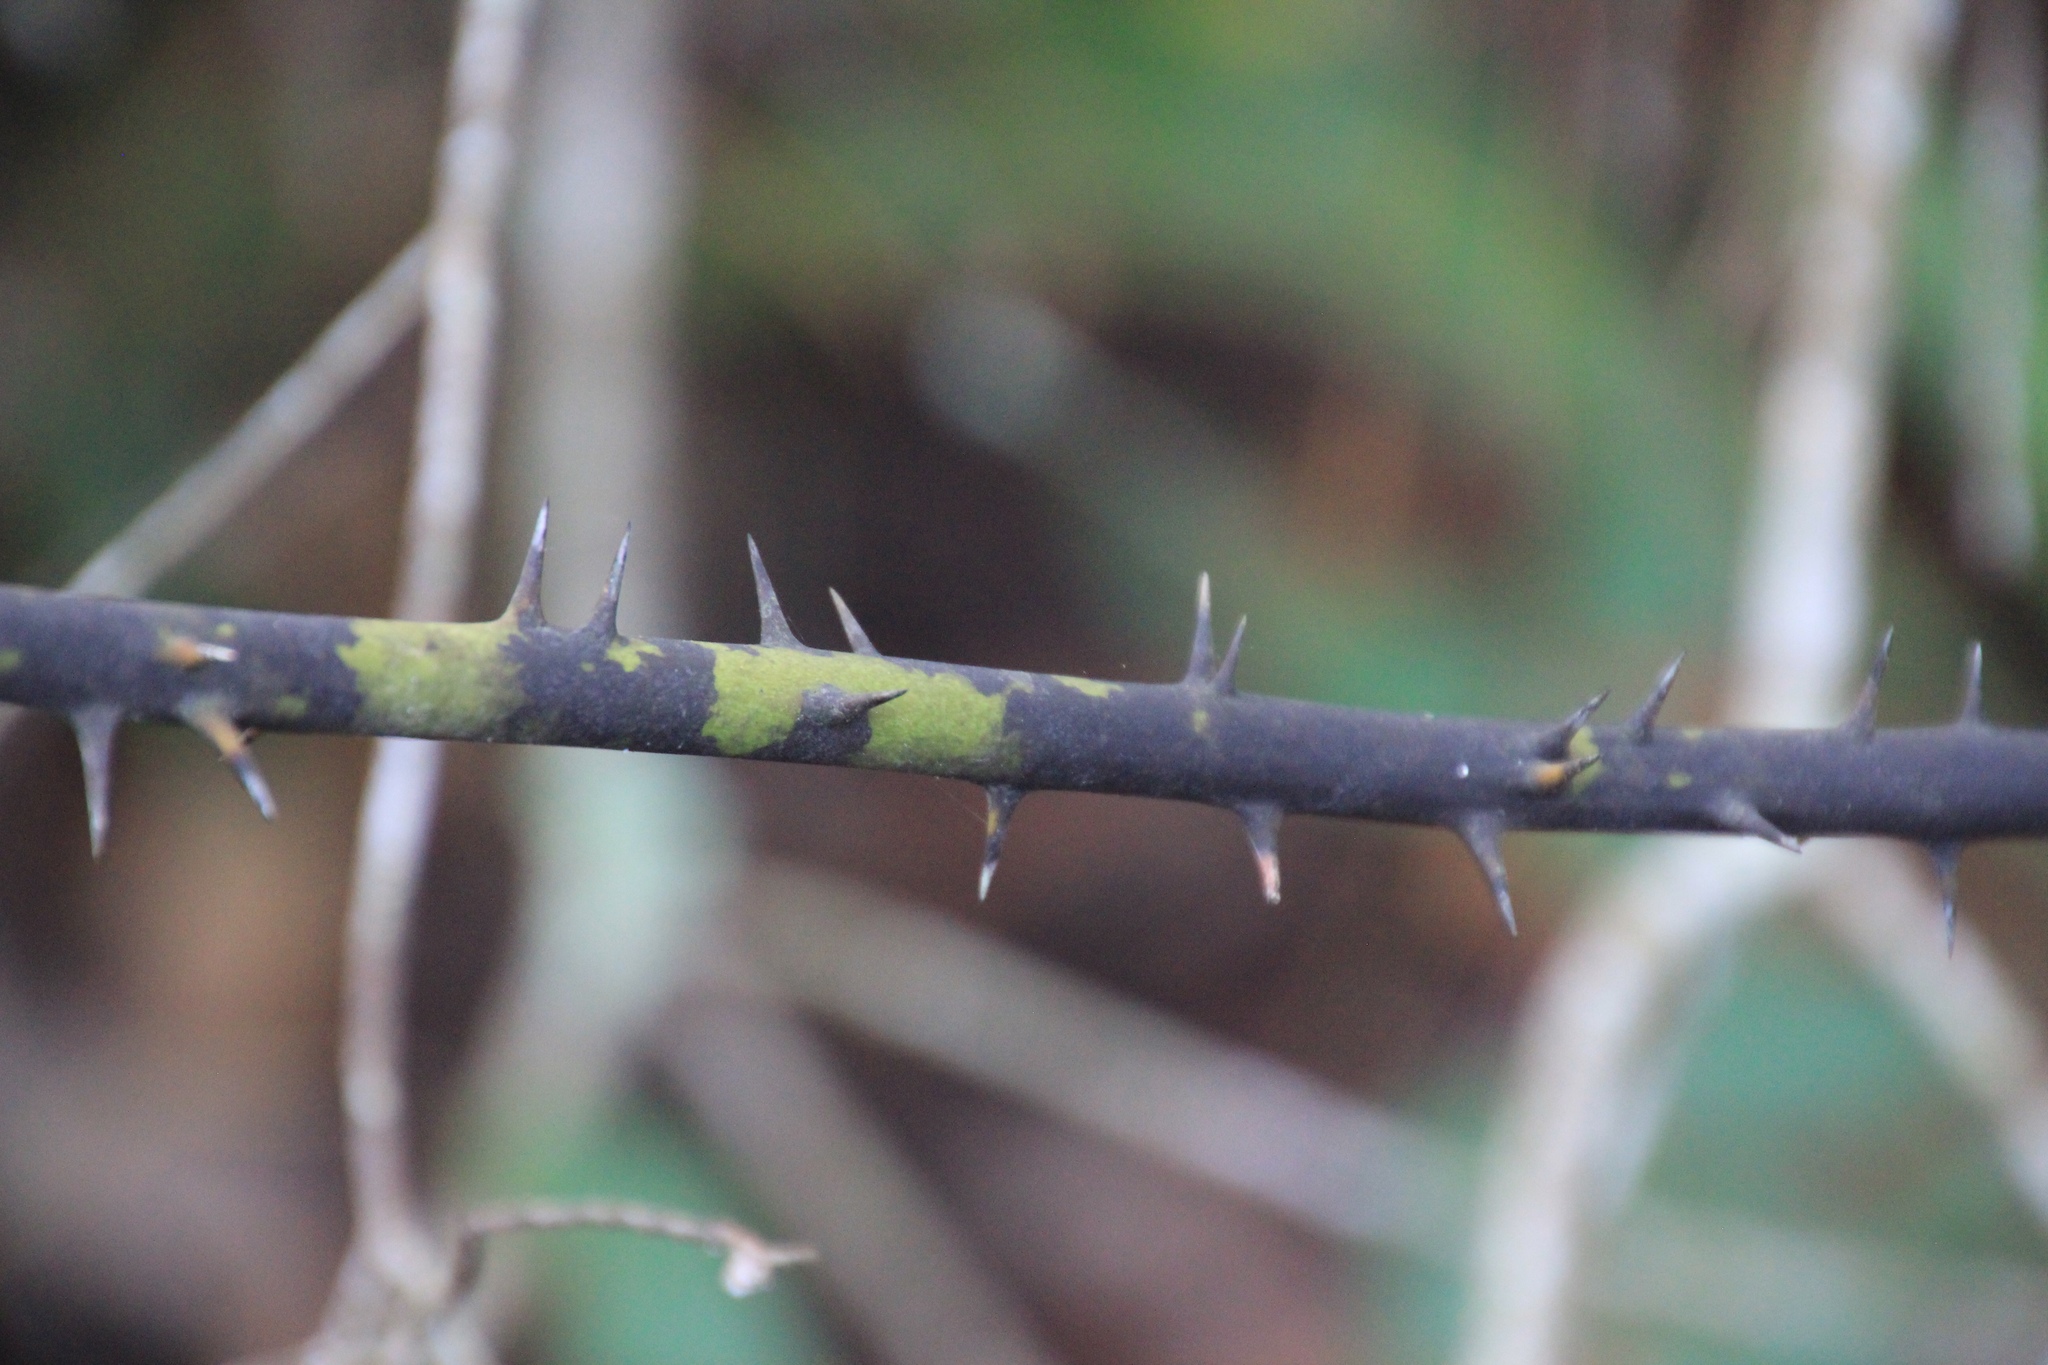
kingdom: Plantae
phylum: Tracheophyta
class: Liliopsida
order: Liliales
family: Smilacaceae
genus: Smilax
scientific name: Smilax laurifolia
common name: Bamboovine
